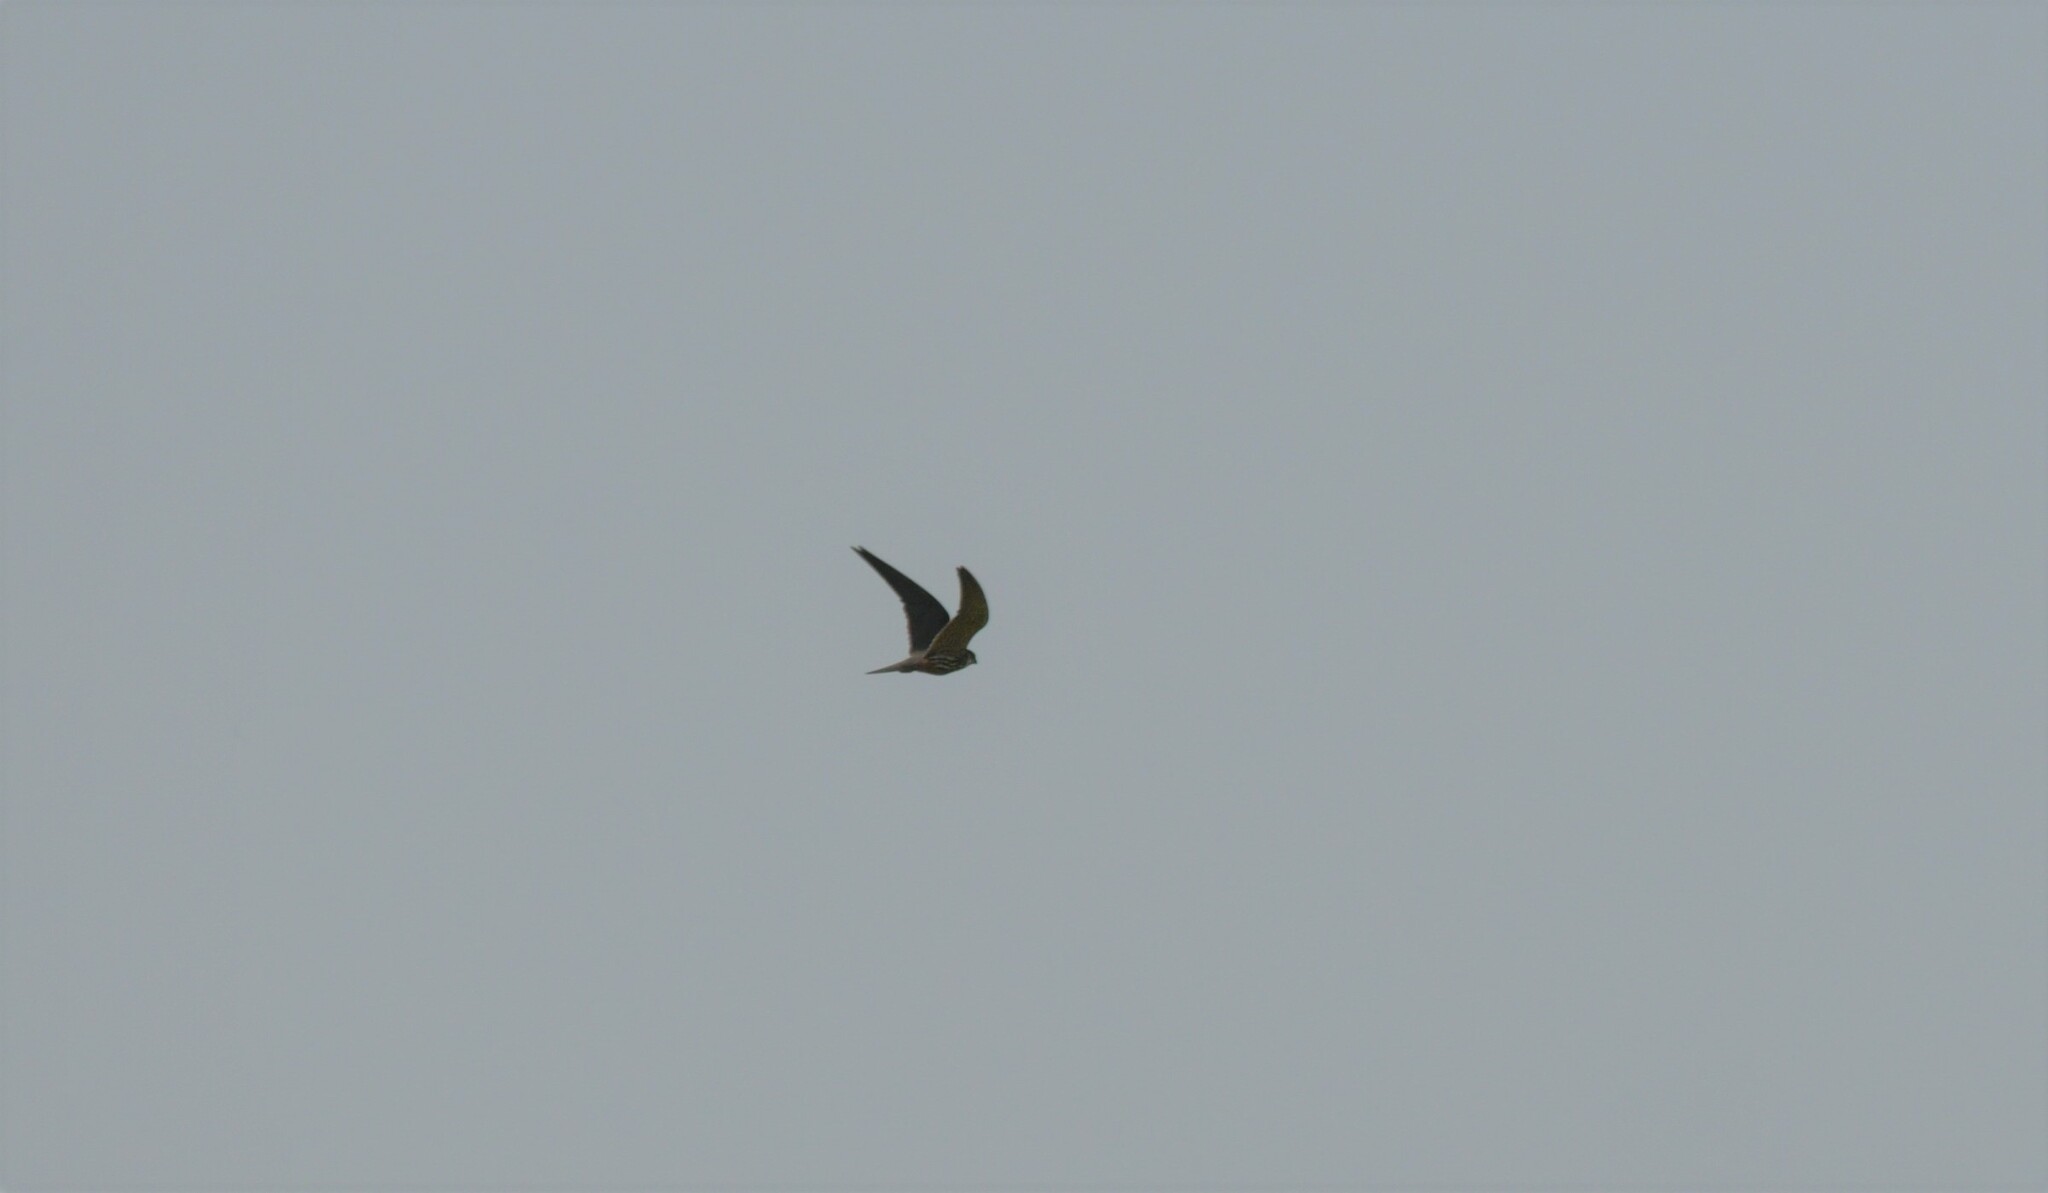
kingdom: Animalia
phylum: Chordata
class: Aves
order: Falconiformes
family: Falconidae
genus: Falco
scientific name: Falco subbuteo
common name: Eurasian hobby
